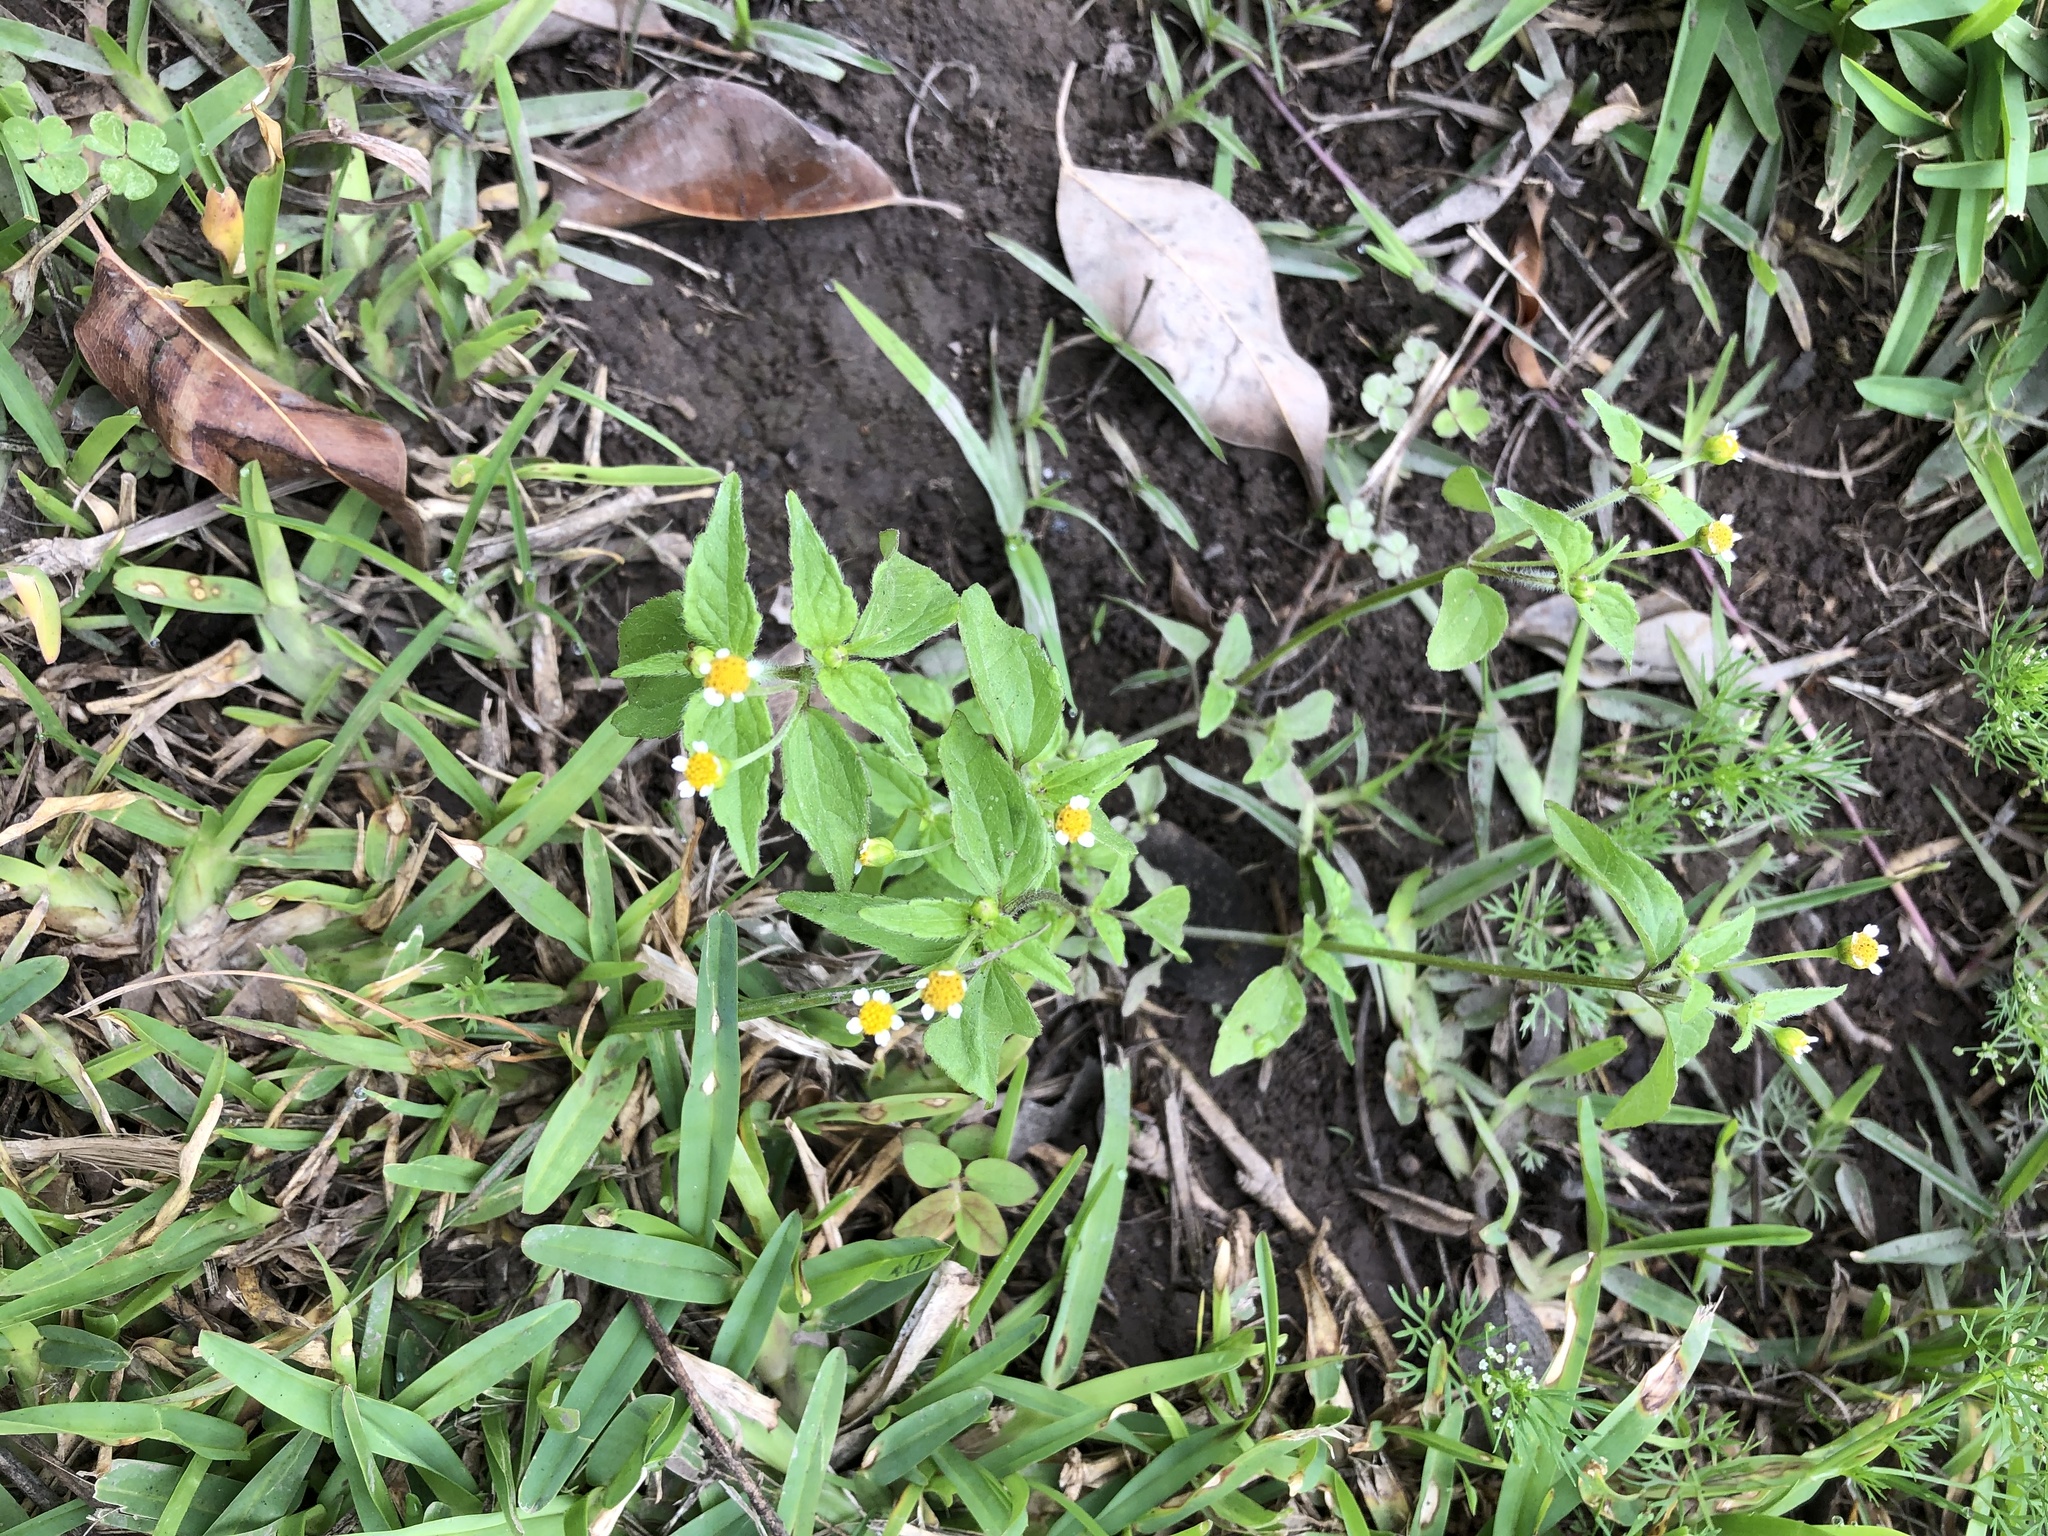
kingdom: Plantae
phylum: Tracheophyta
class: Magnoliopsida
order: Asterales
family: Asteraceae
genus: Galinsoga
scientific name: Galinsoga parviflora
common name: Gallant soldier
